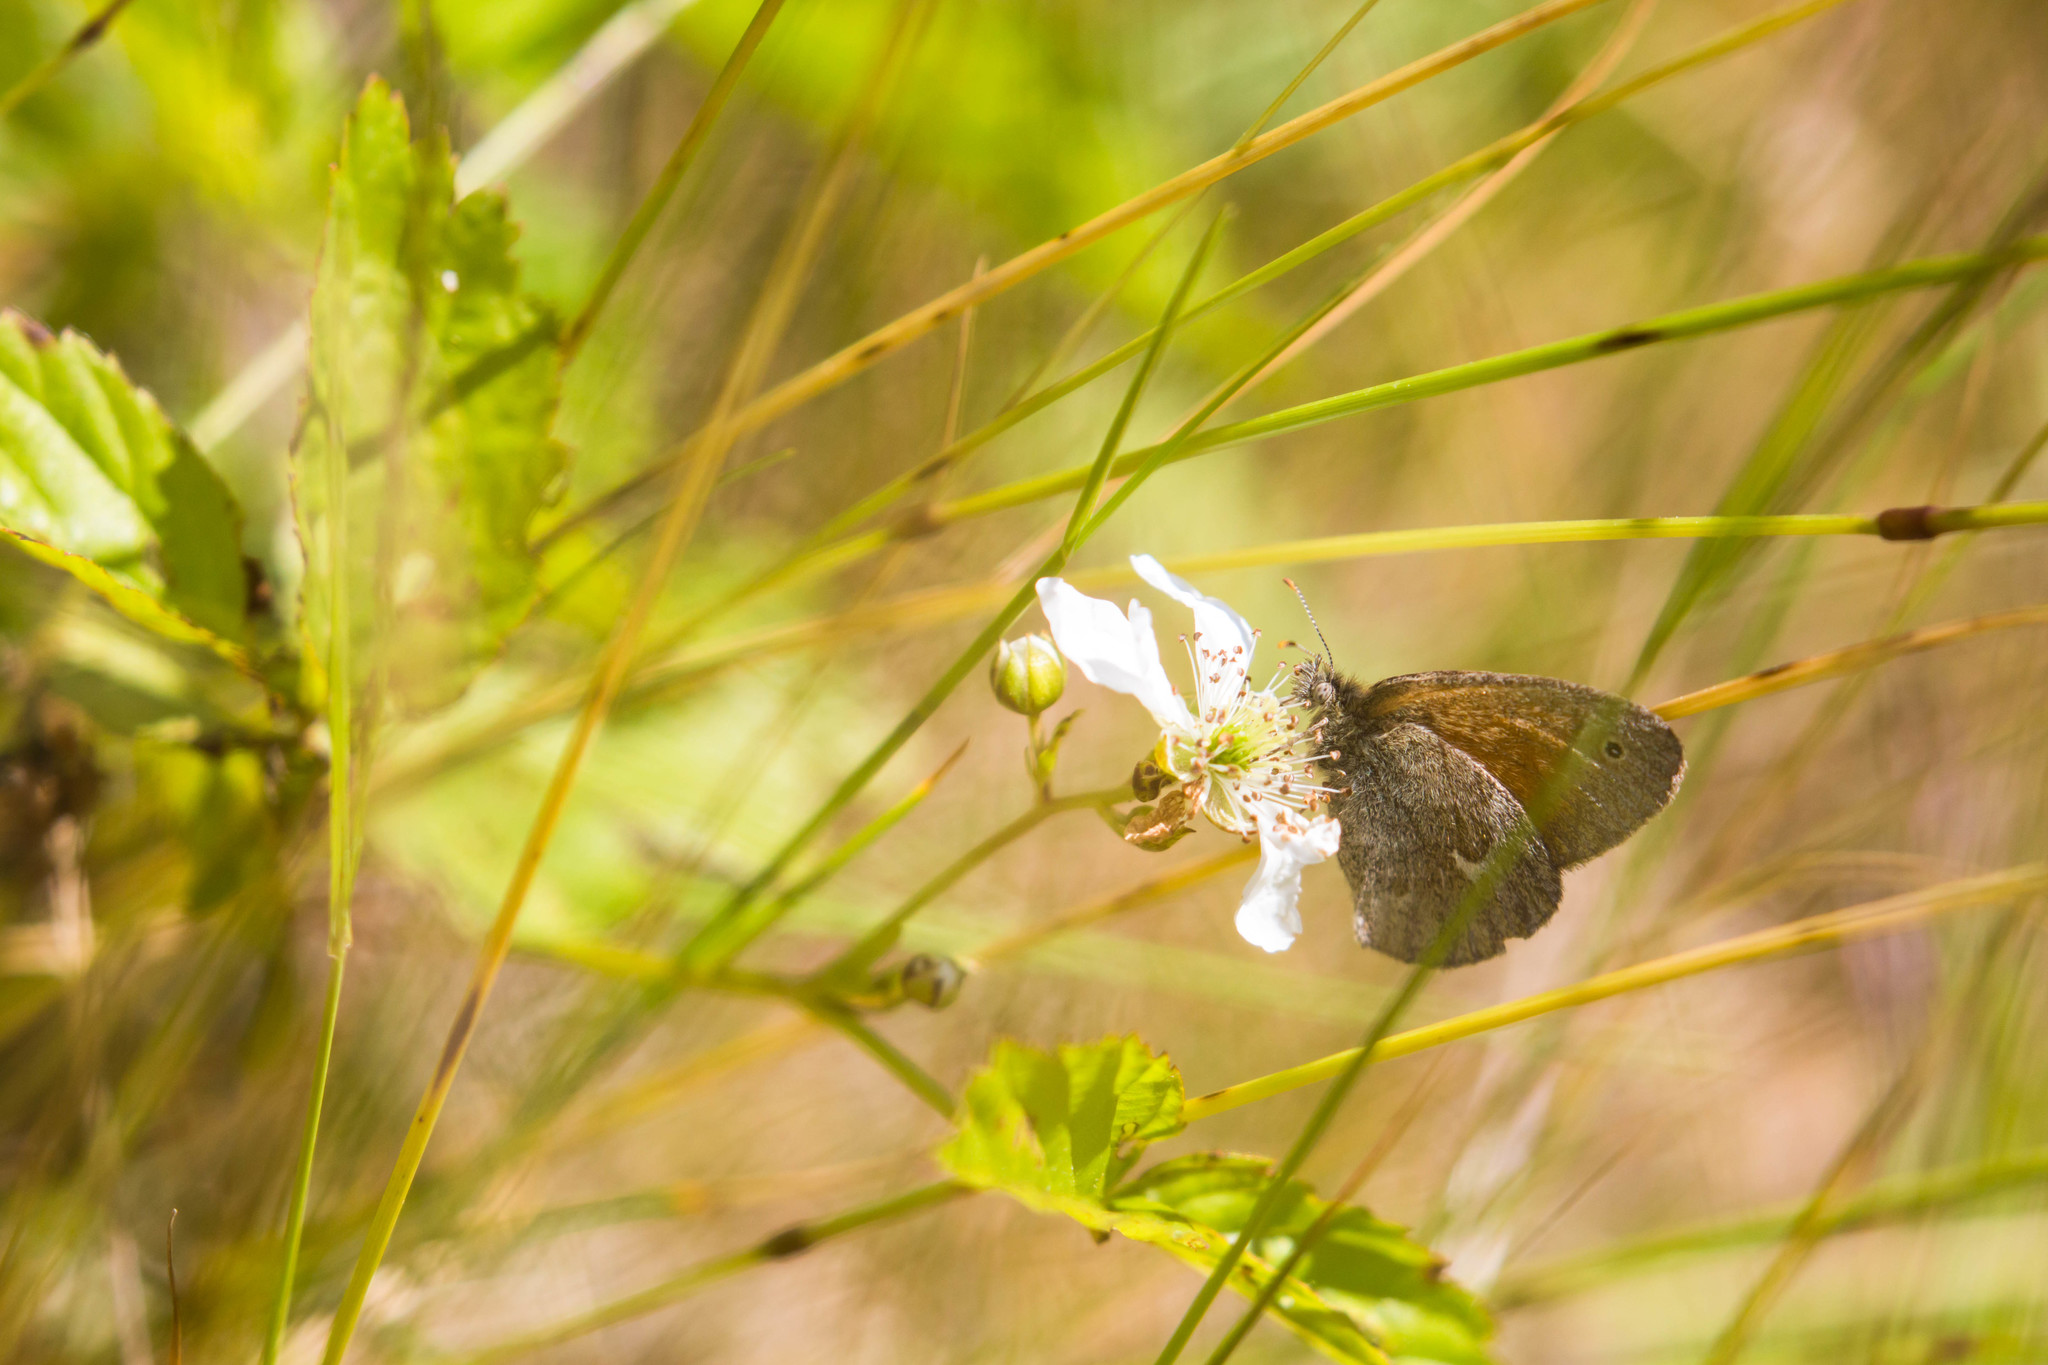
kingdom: Animalia
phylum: Arthropoda
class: Insecta
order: Lepidoptera
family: Nymphalidae
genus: Coenonympha
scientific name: Coenonympha california
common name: Common ringlet
